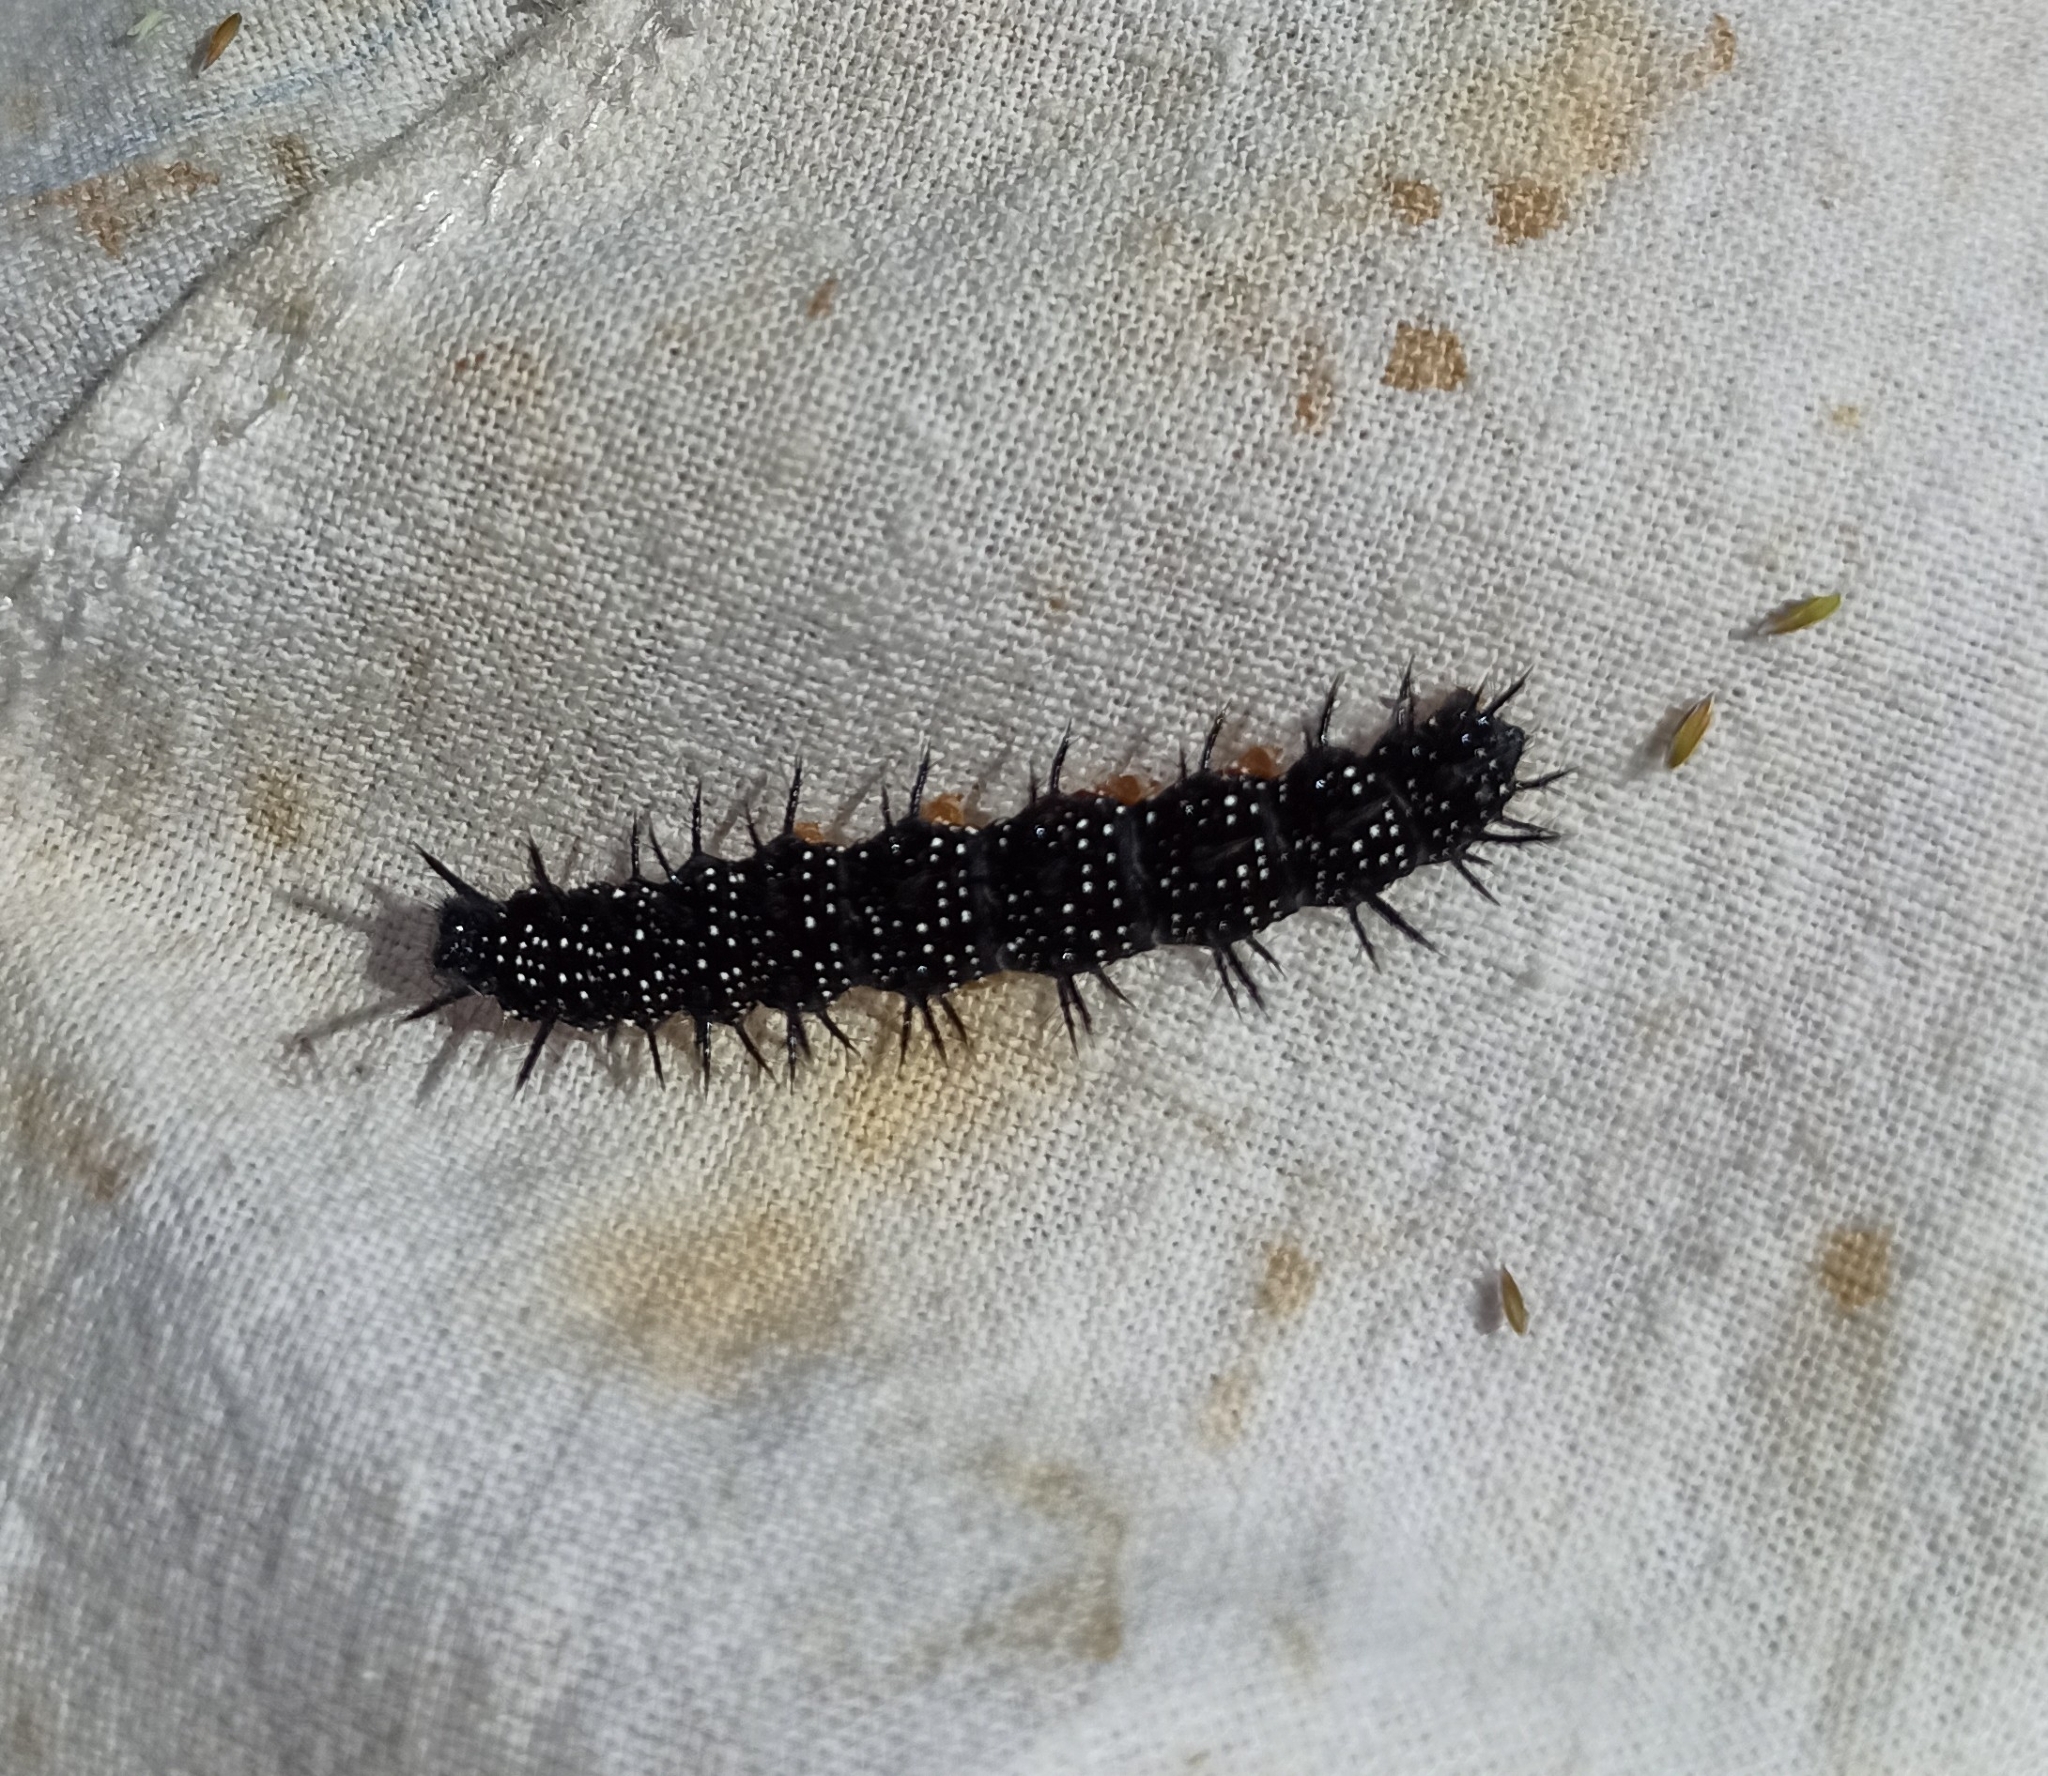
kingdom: Animalia
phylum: Arthropoda
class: Insecta
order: Lepidoptera
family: Nymphalidae
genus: Aglais
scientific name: Aglais io
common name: Peacock
